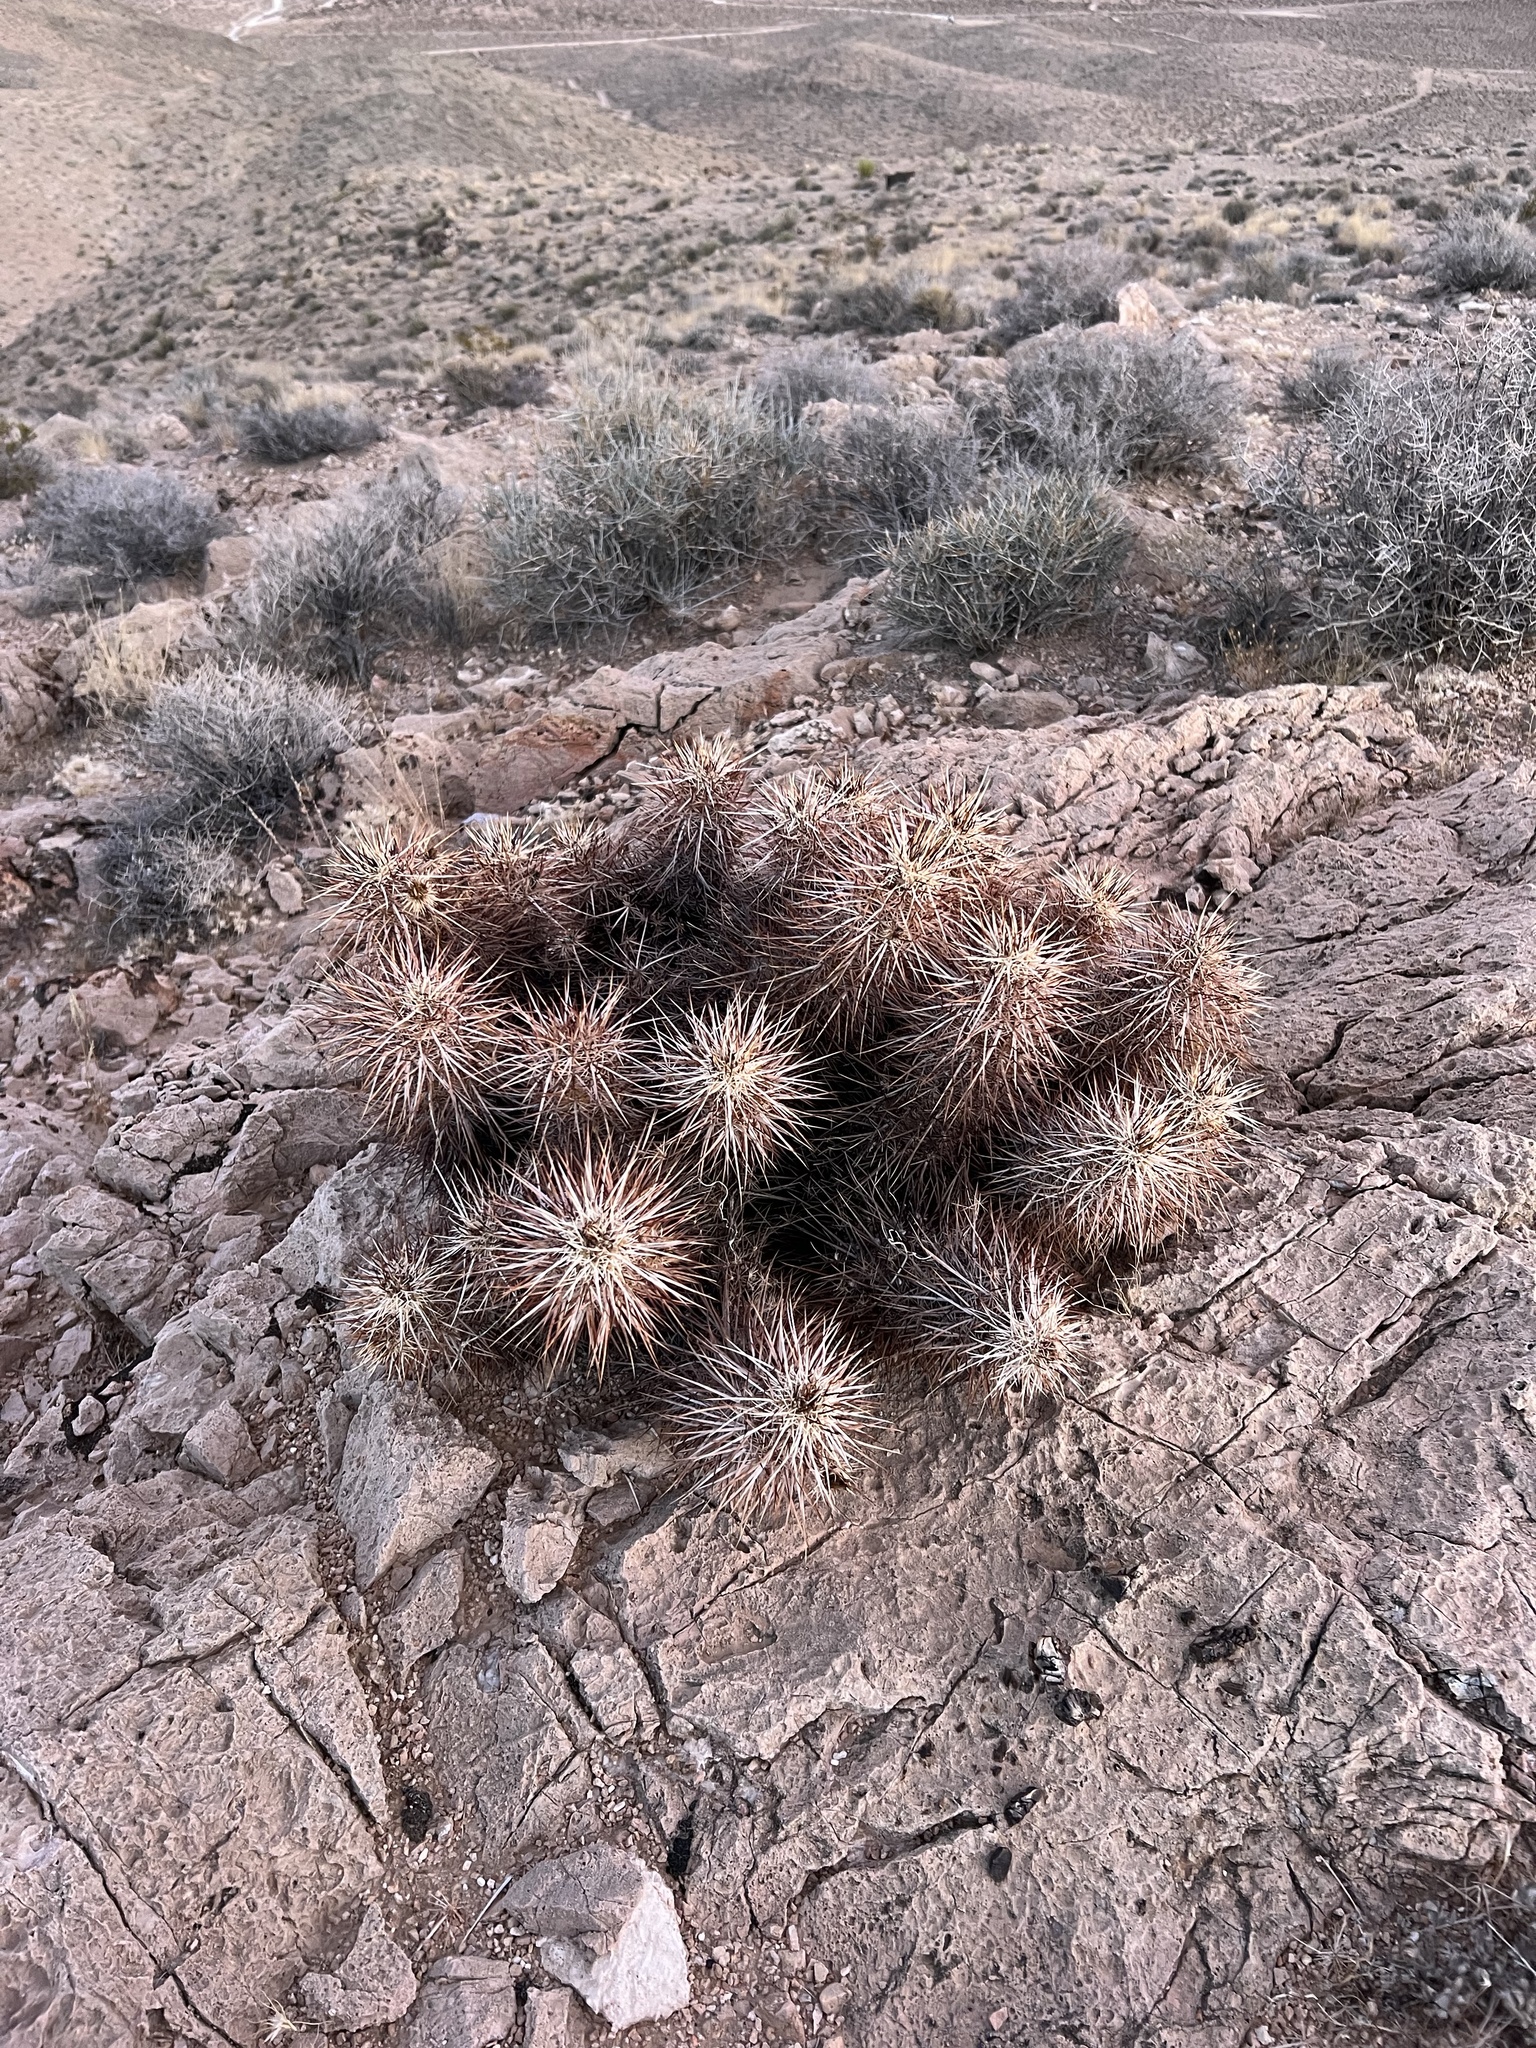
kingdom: Plantae
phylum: Tracheophyta
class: Magnoliopsida
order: Caryophyllales
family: Cactaceae
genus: Echinocereus
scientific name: Echinocereus engelmannii
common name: Engelmann's hedgehog cactus
